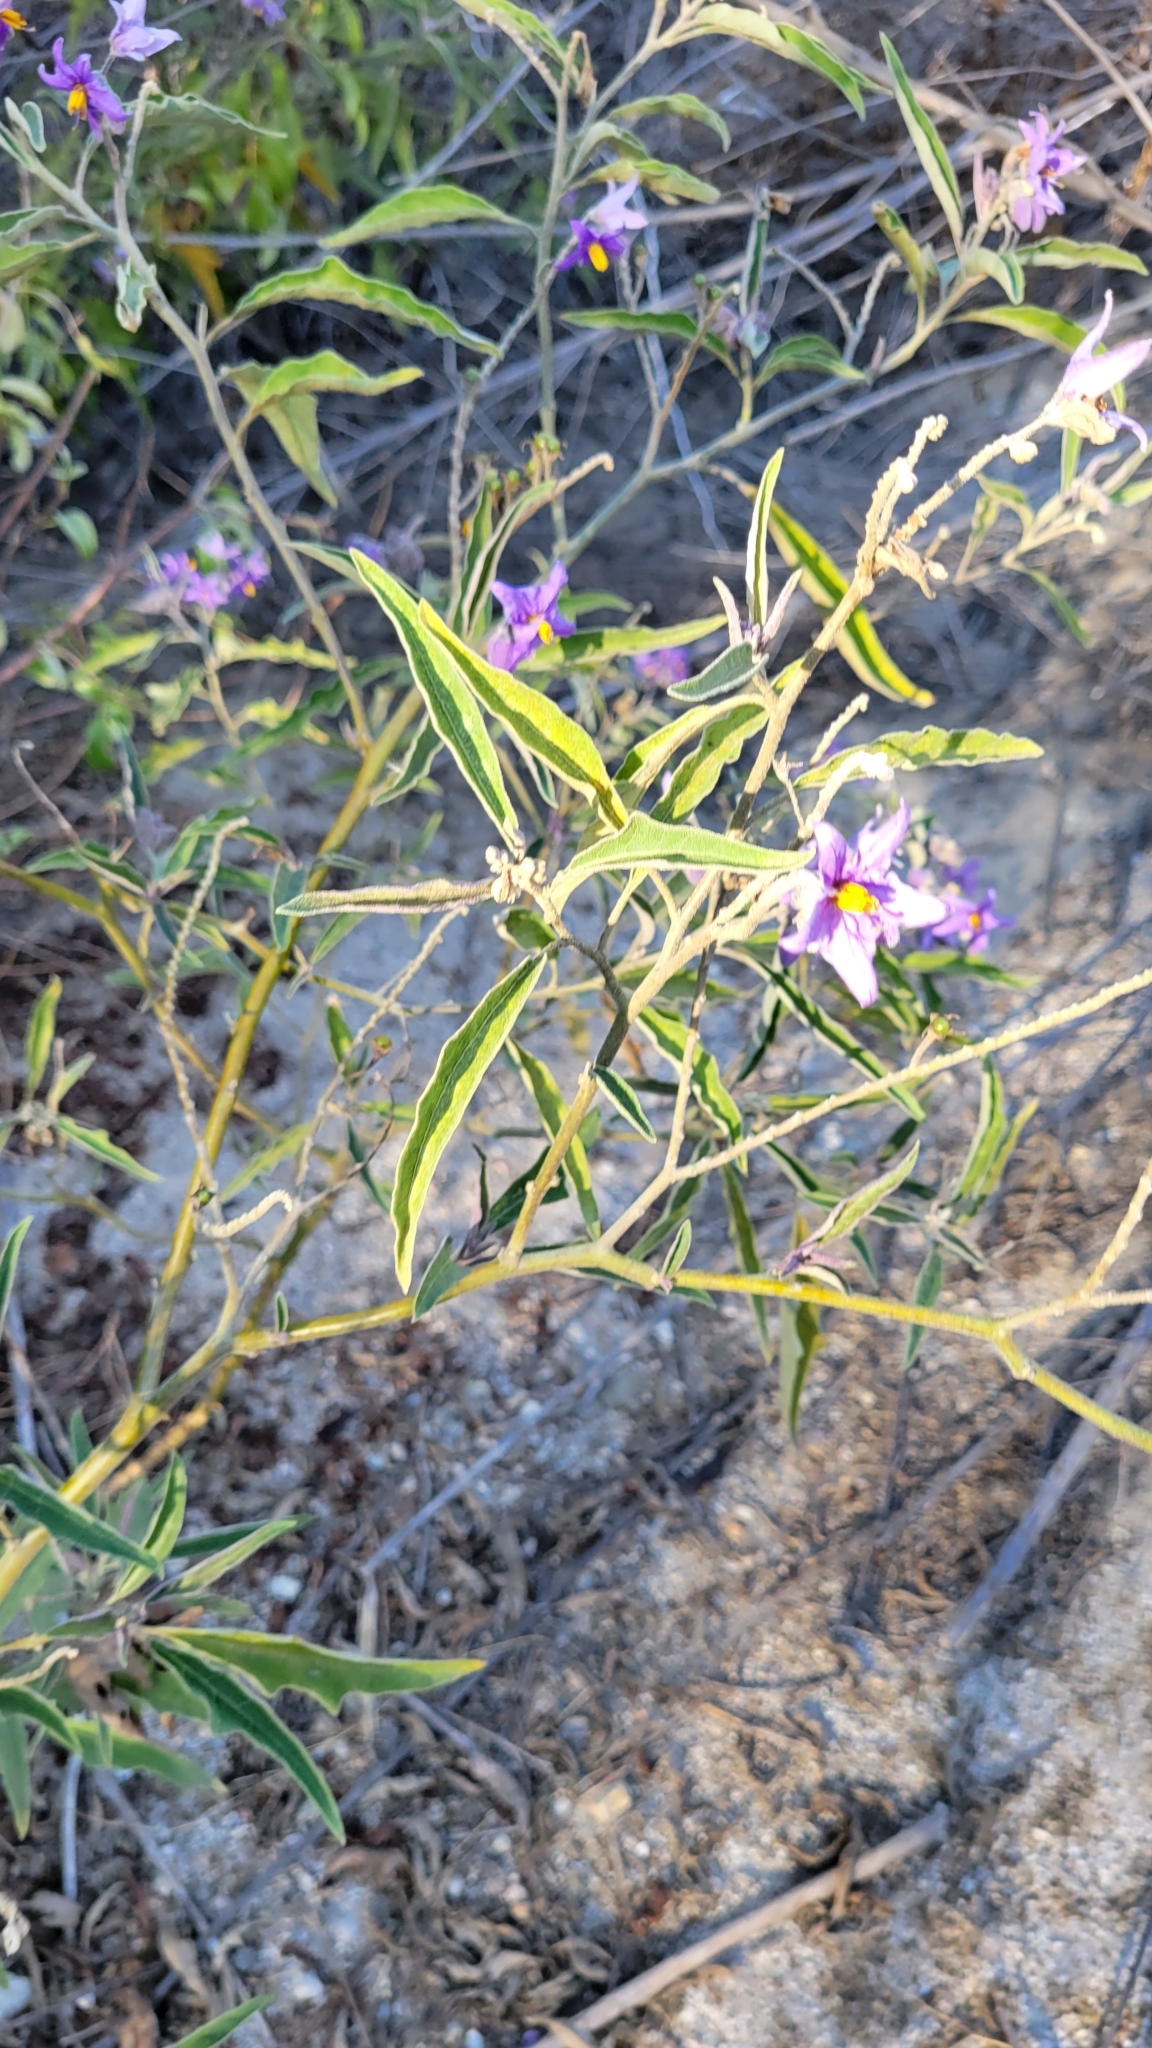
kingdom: Plantae
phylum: Tracheophyta
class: Magnoliopsida
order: Solanales
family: Solanaceae
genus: Solanum
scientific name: Solanum lanceolatum
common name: Orangeberry nightshade
